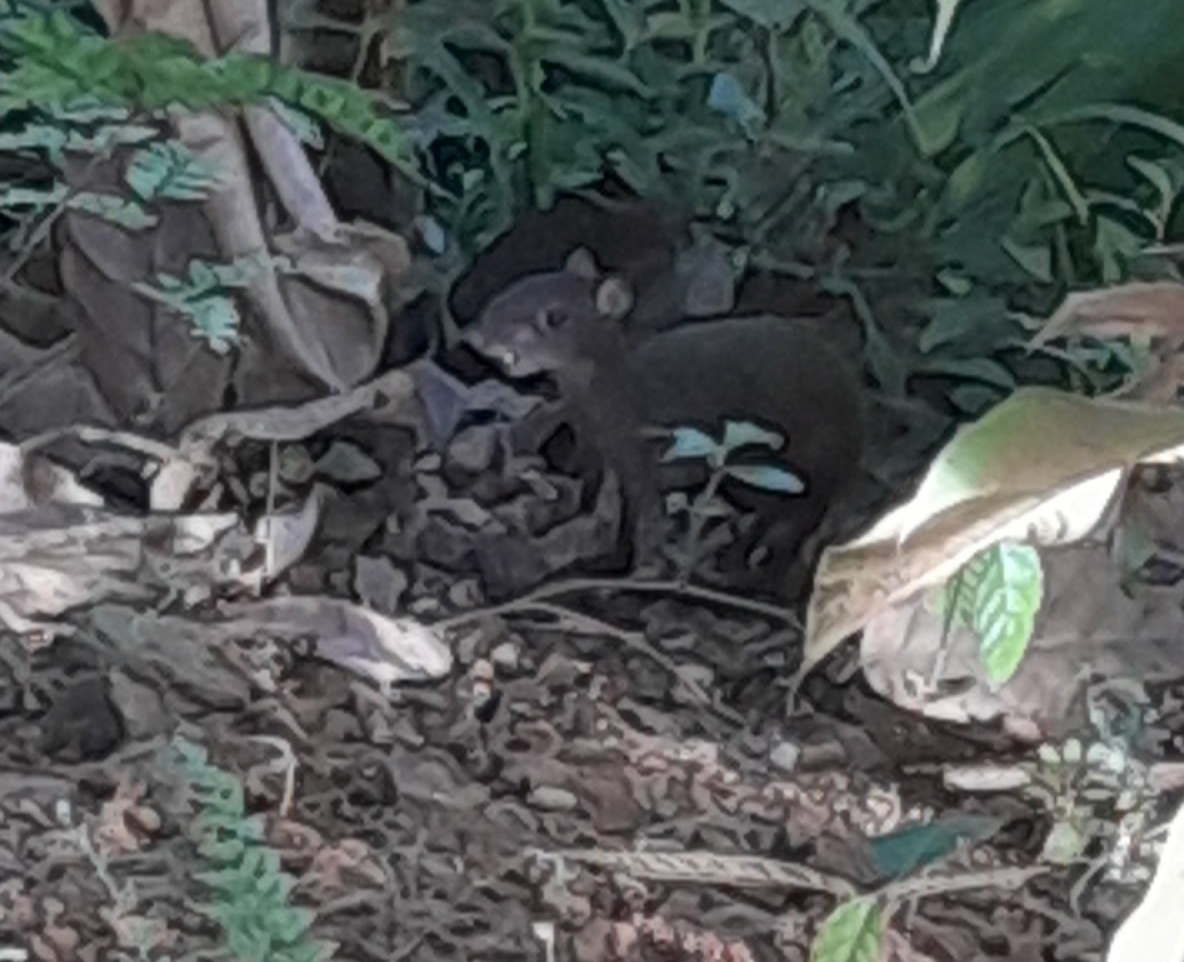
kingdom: Animalia
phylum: Chordata
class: Mammalia
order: Rodentia
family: Dasyproctidae
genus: Dasyprocta
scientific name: Dasyprocta punctata
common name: Central american agouti
